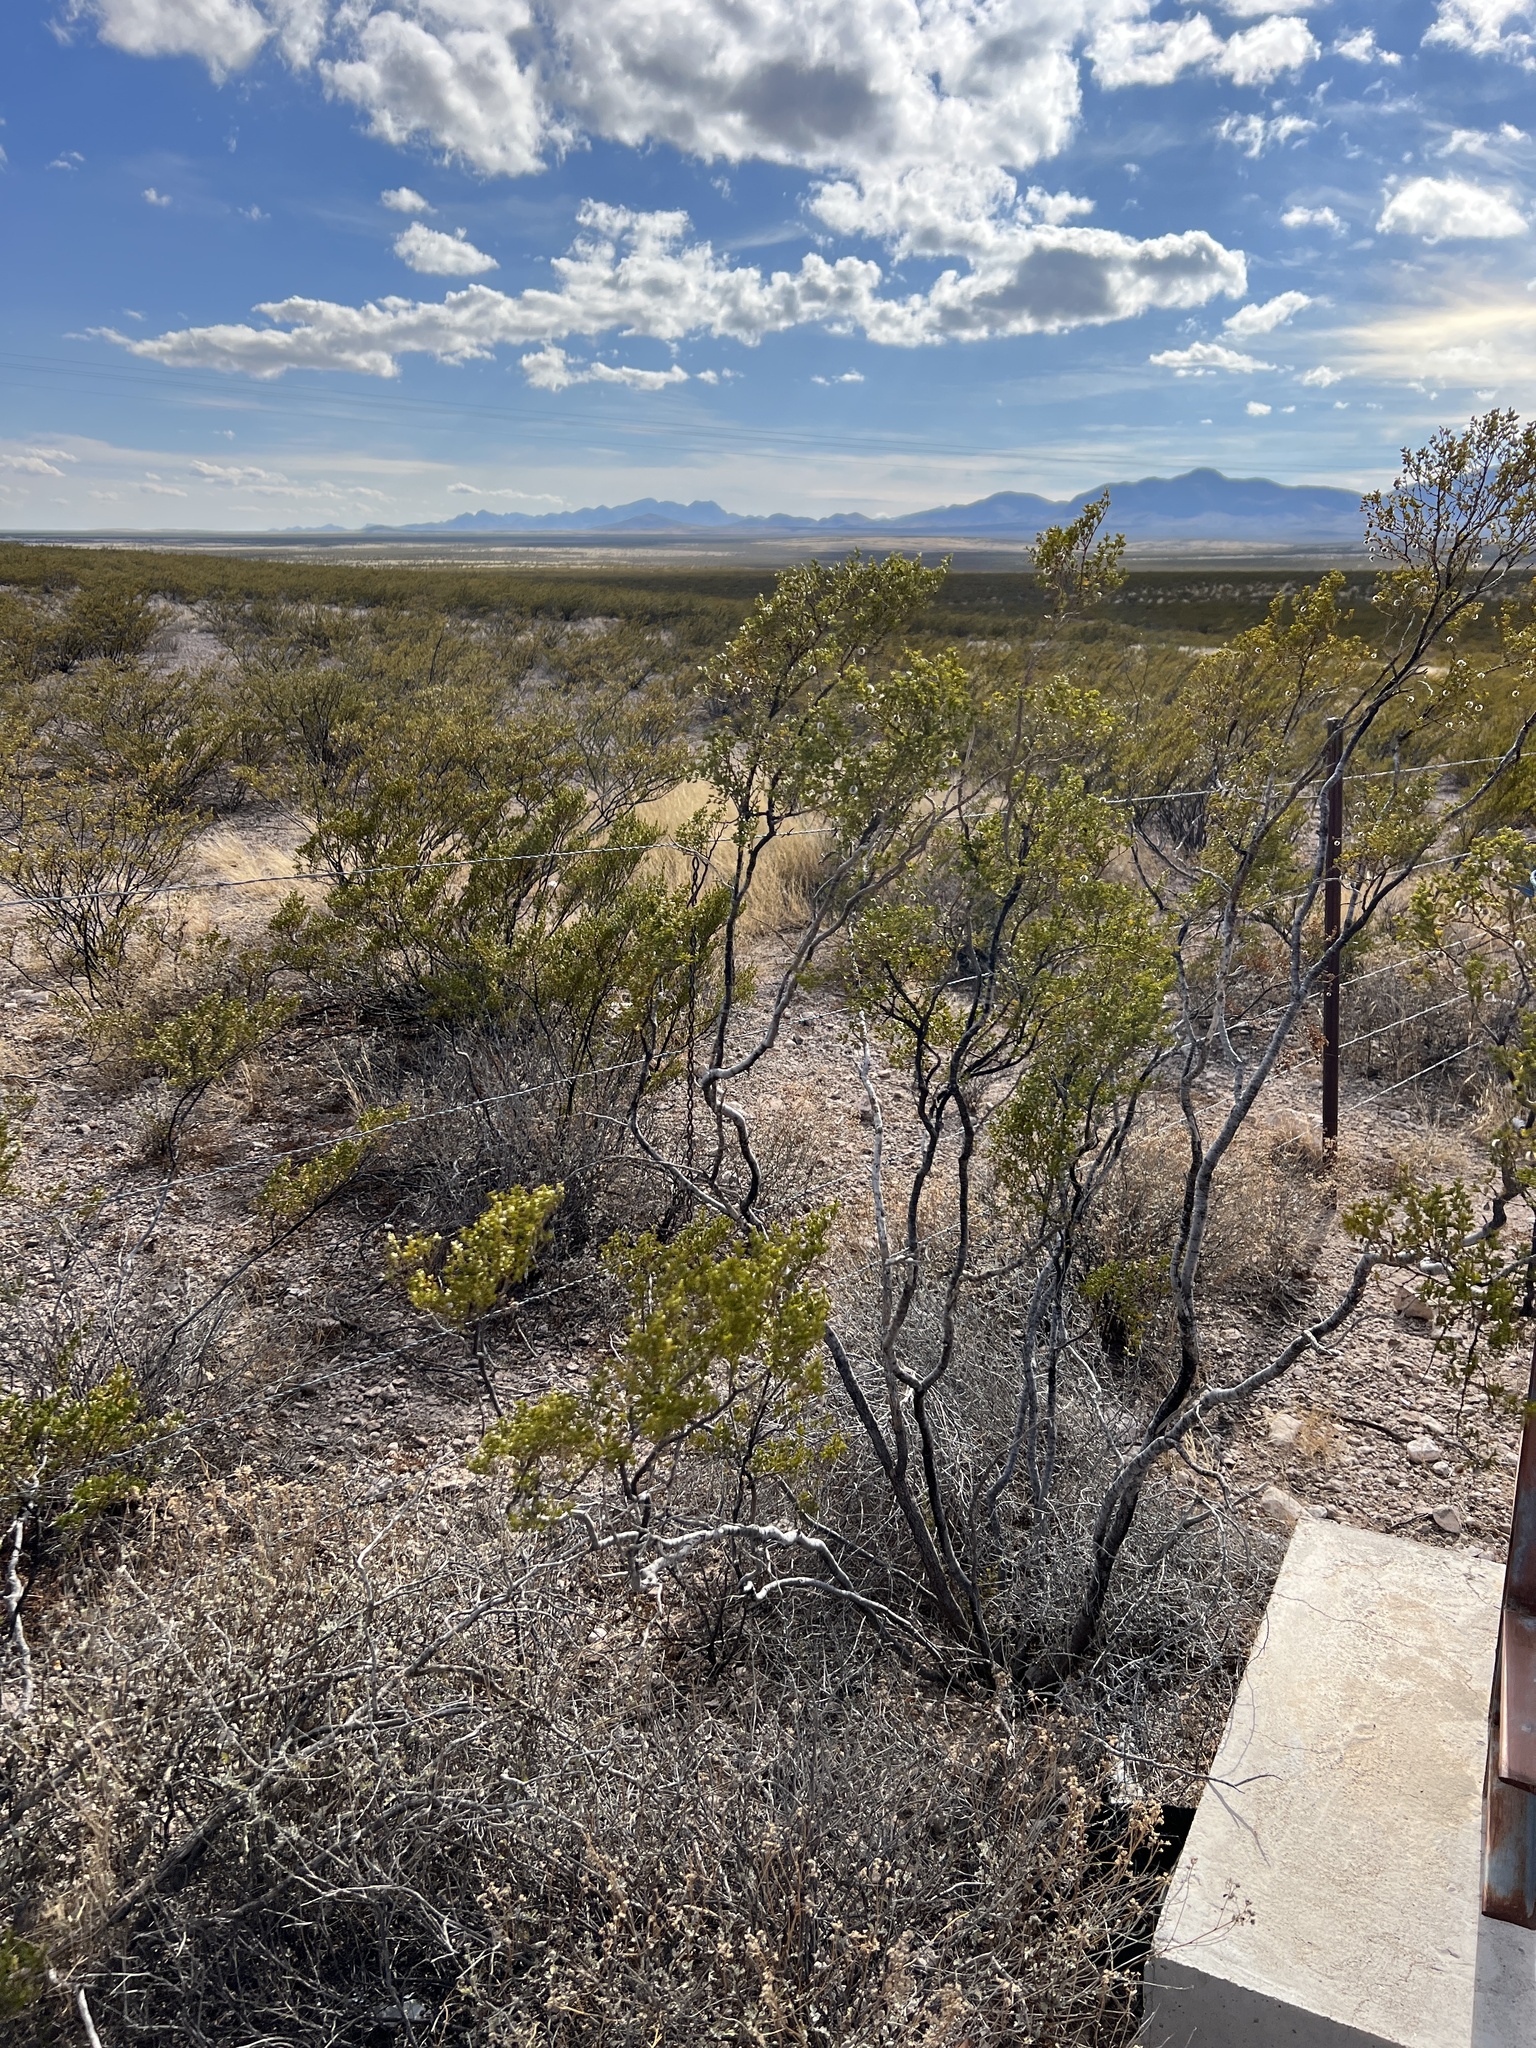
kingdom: Plantae
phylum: Tracheophyta
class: Magnoliopsida
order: Zygophyllales
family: Zygophyllaceae
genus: Larrea
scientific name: Larrea tridentata
